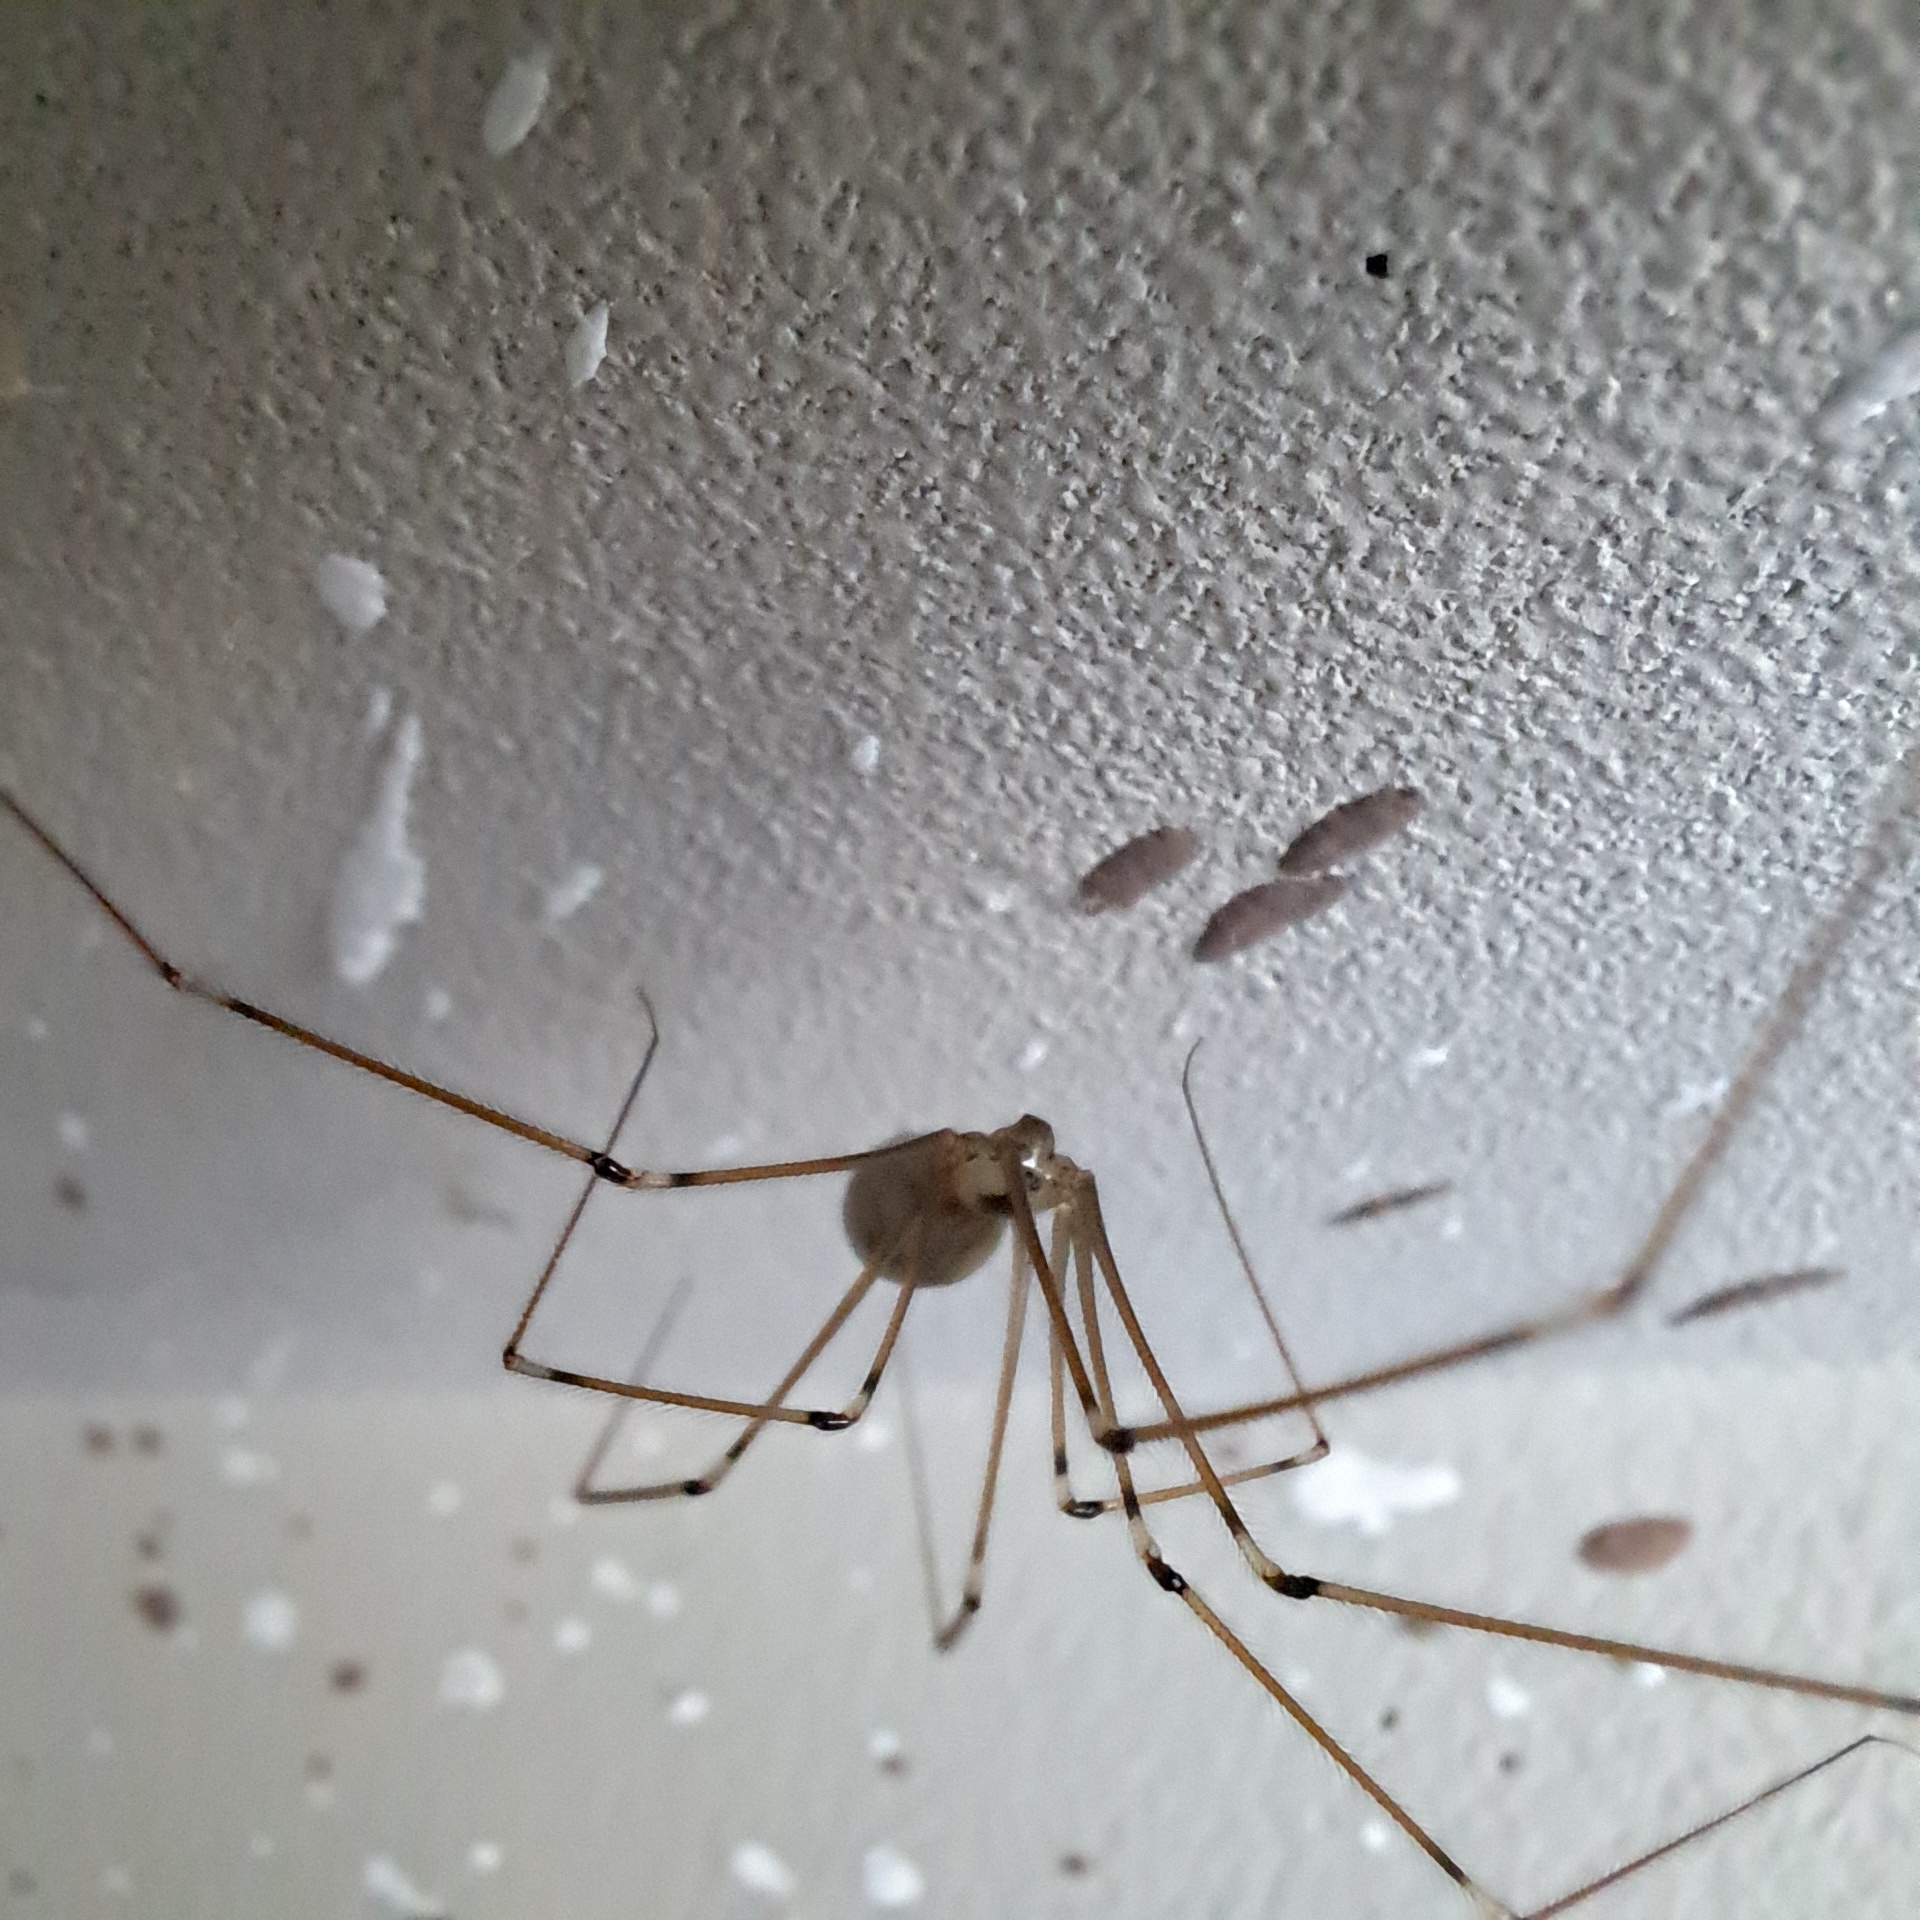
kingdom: Animalia
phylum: Arthropoda
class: Arachnida
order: Araneae
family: Pholcidae
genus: Pholcus
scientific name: Pholcus phalangioides
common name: Longbodied cellar spider
